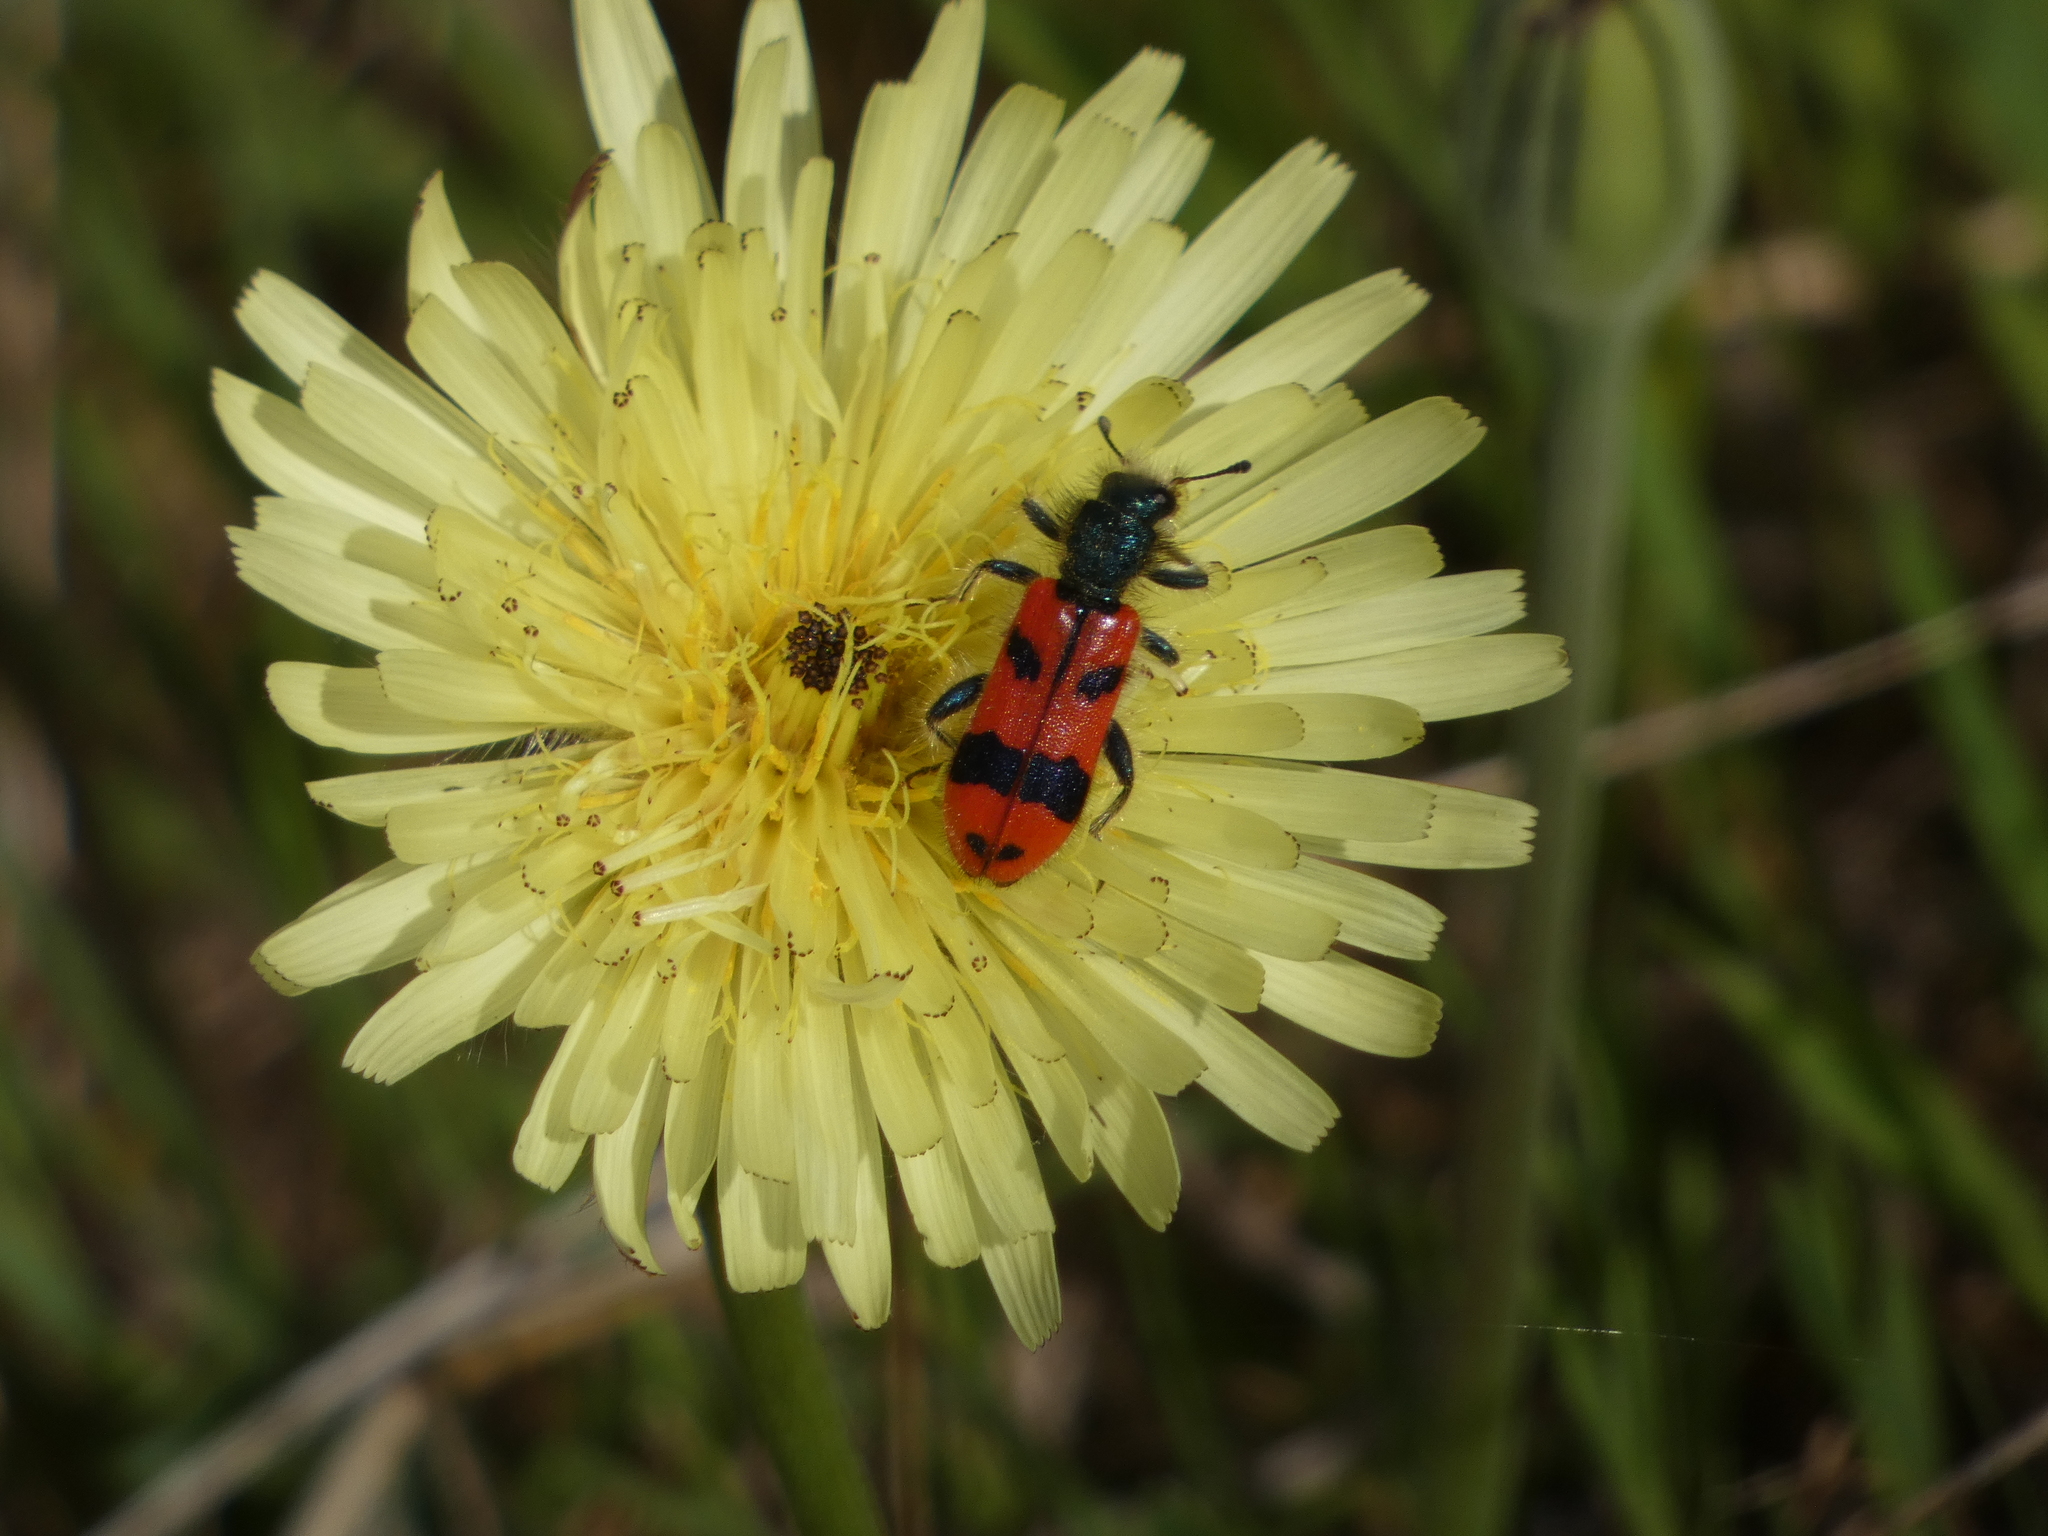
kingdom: Animalia
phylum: Arthropoda
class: Insecta
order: Coleoptera
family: Cleridae
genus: Trichodes
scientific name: Trichodes alvearius
